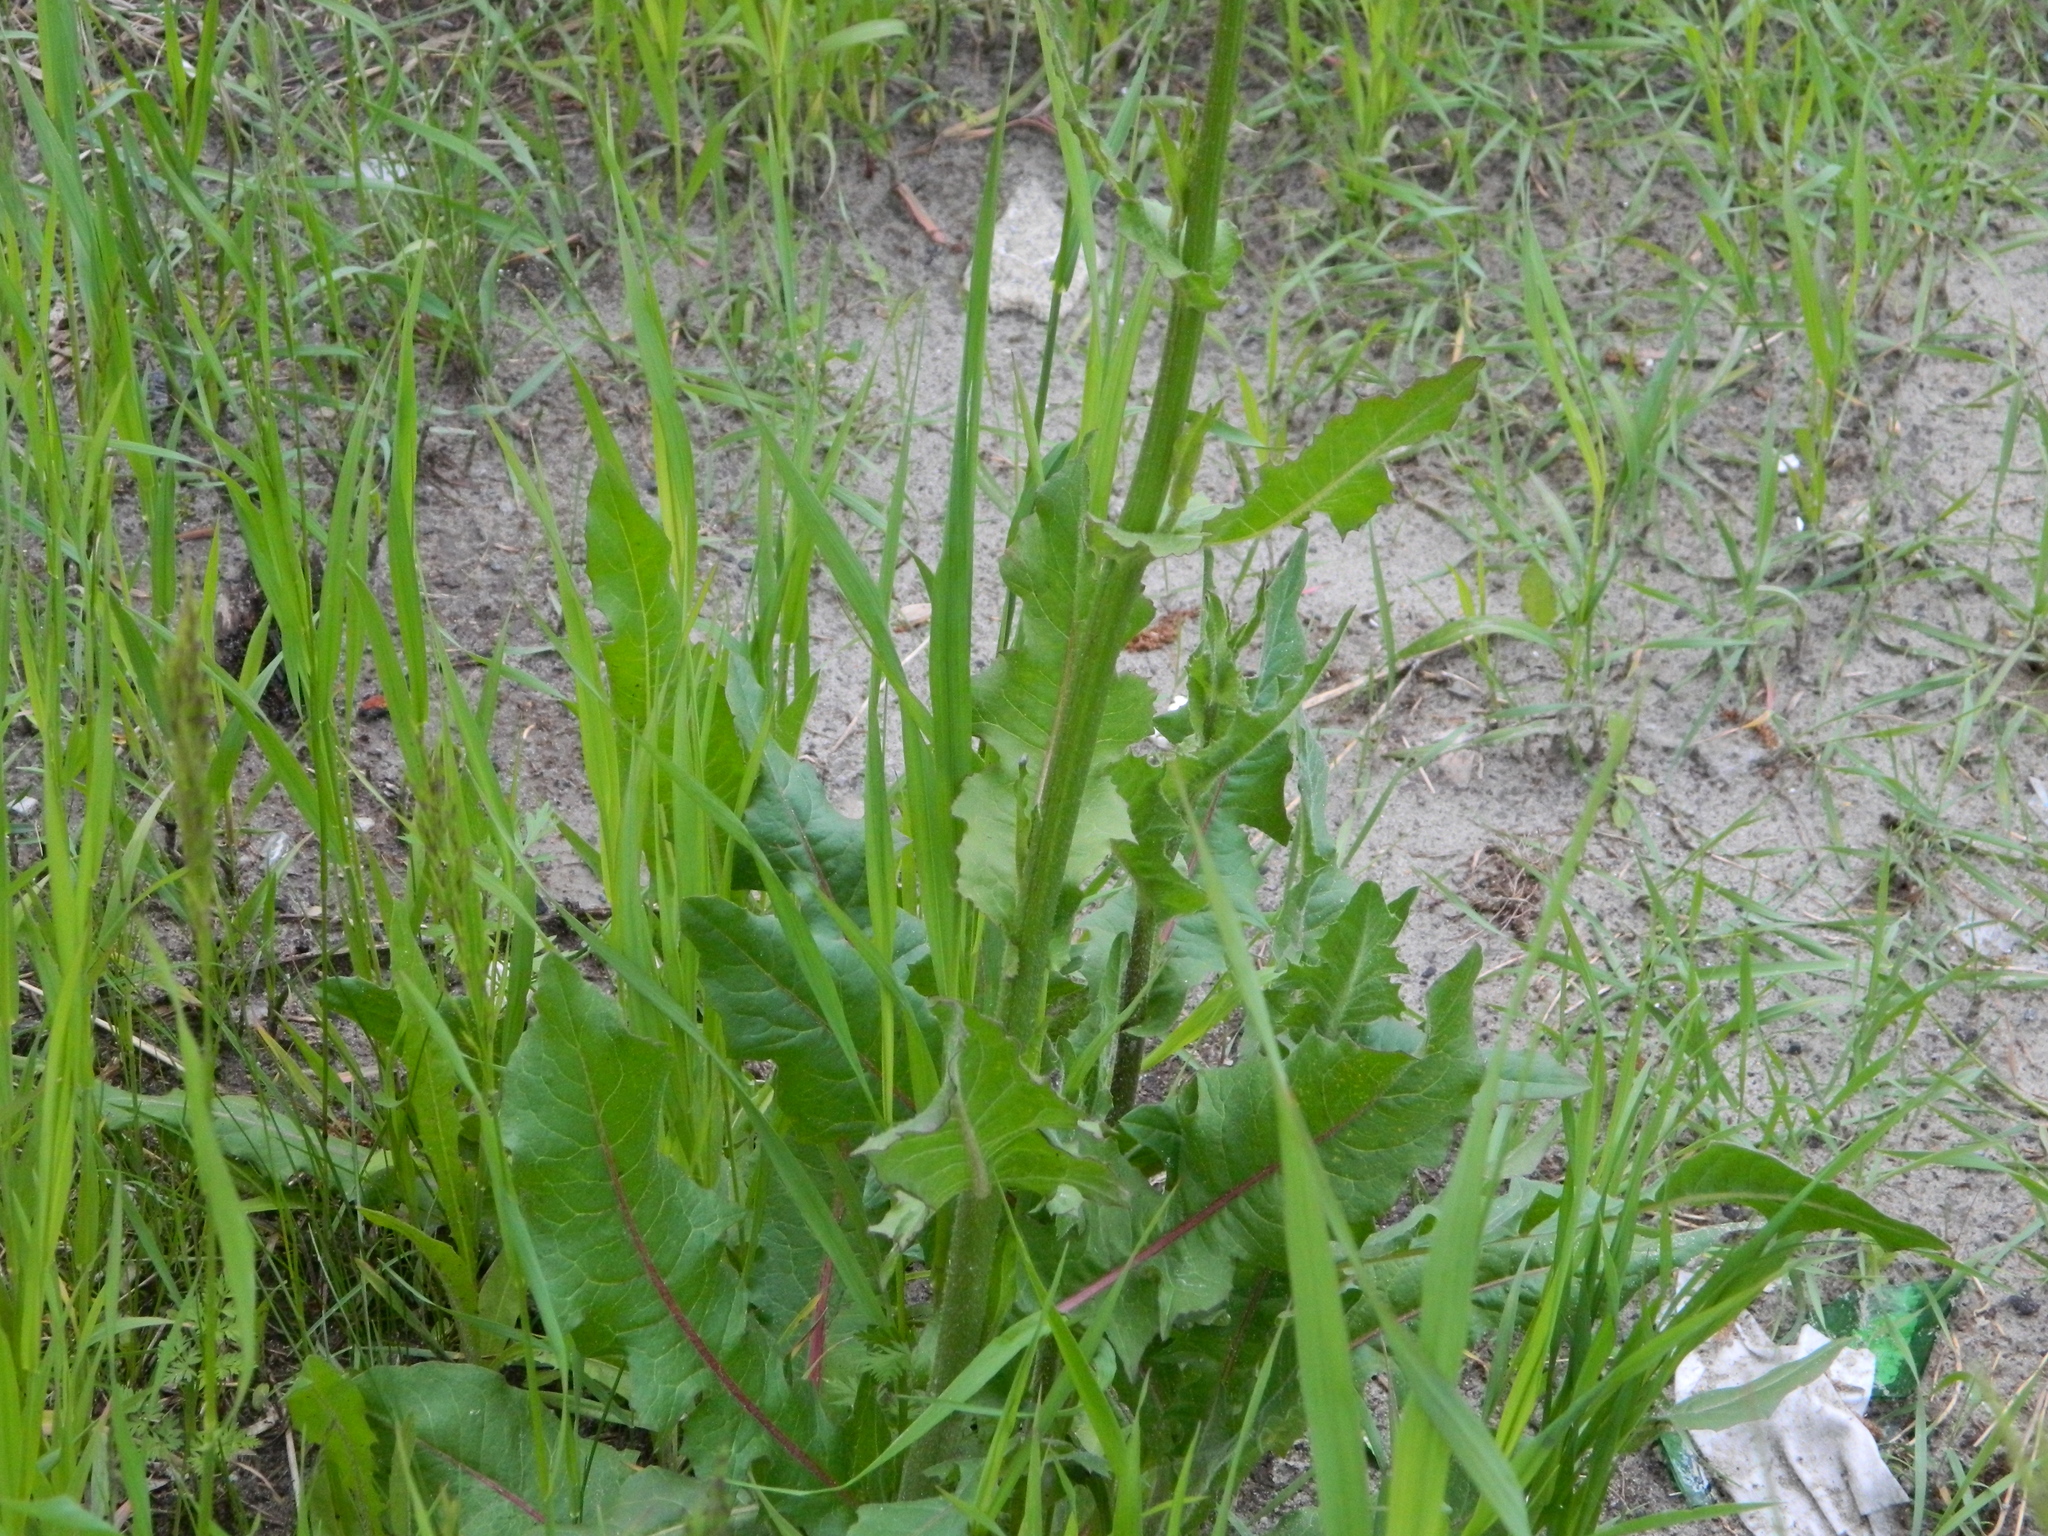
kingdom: Plantae
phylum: Tracheophyta
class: Magnoliopsida
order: Asterales
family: Asteraceae
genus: Cichorium
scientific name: Cichorium intybus
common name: Chicory
